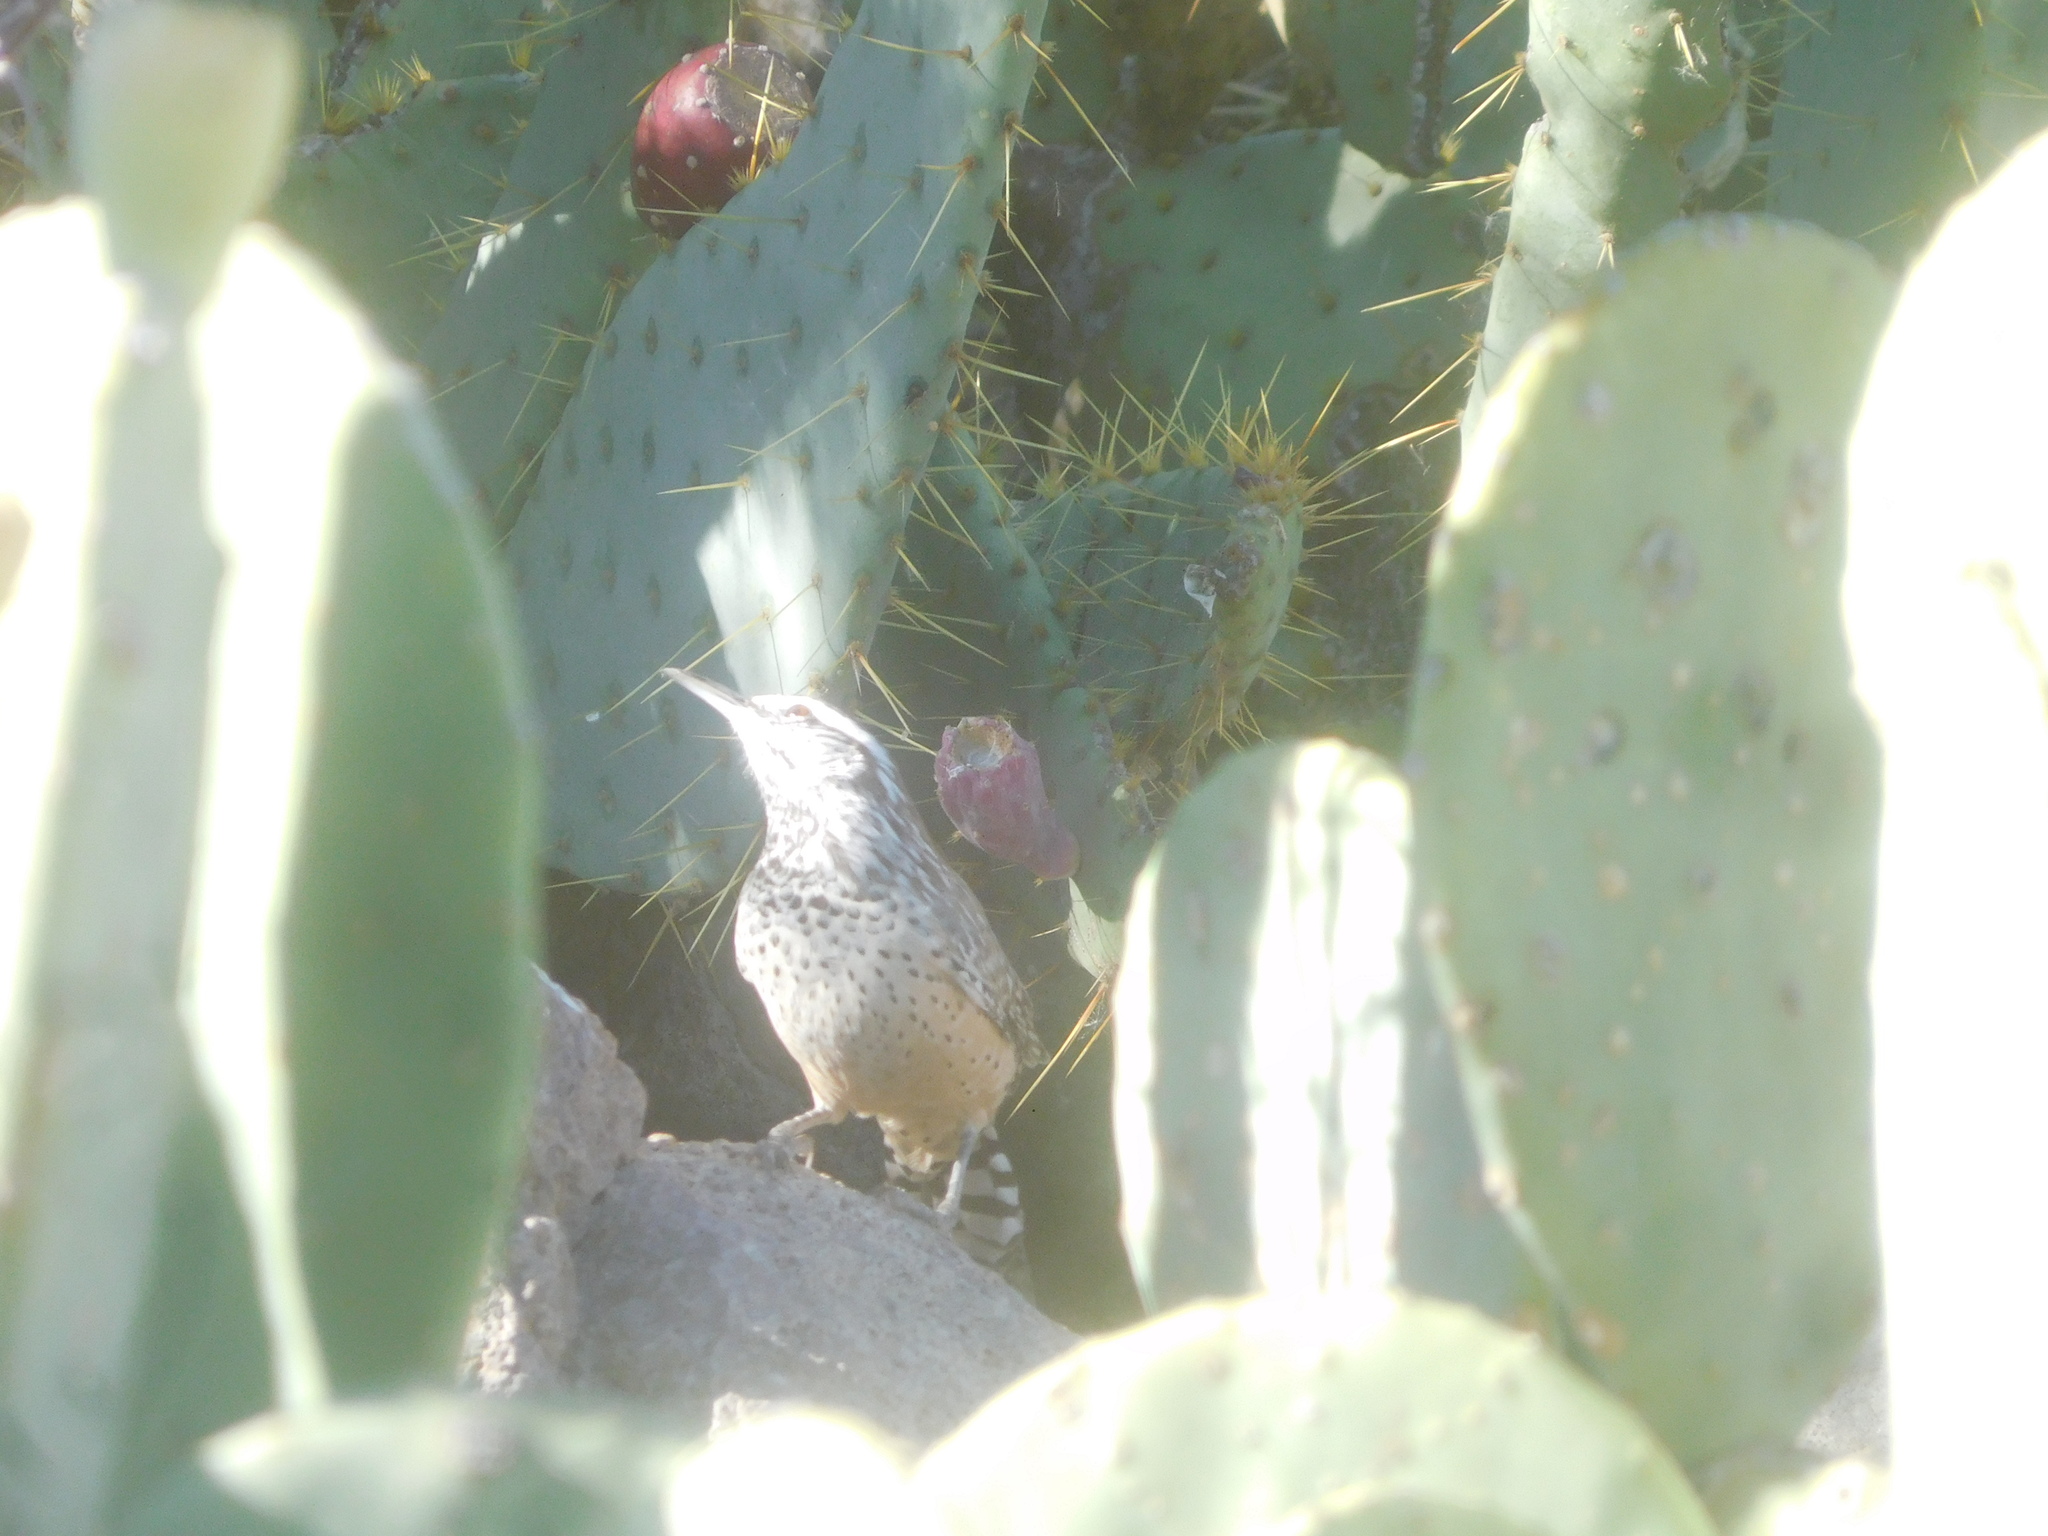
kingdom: Animalia
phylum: Chordata
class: Aves
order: Passeriformes
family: Troglodytidae
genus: Campylorhynchus
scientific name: Campylorhynchus brunneicapillus
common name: Cactus wren
